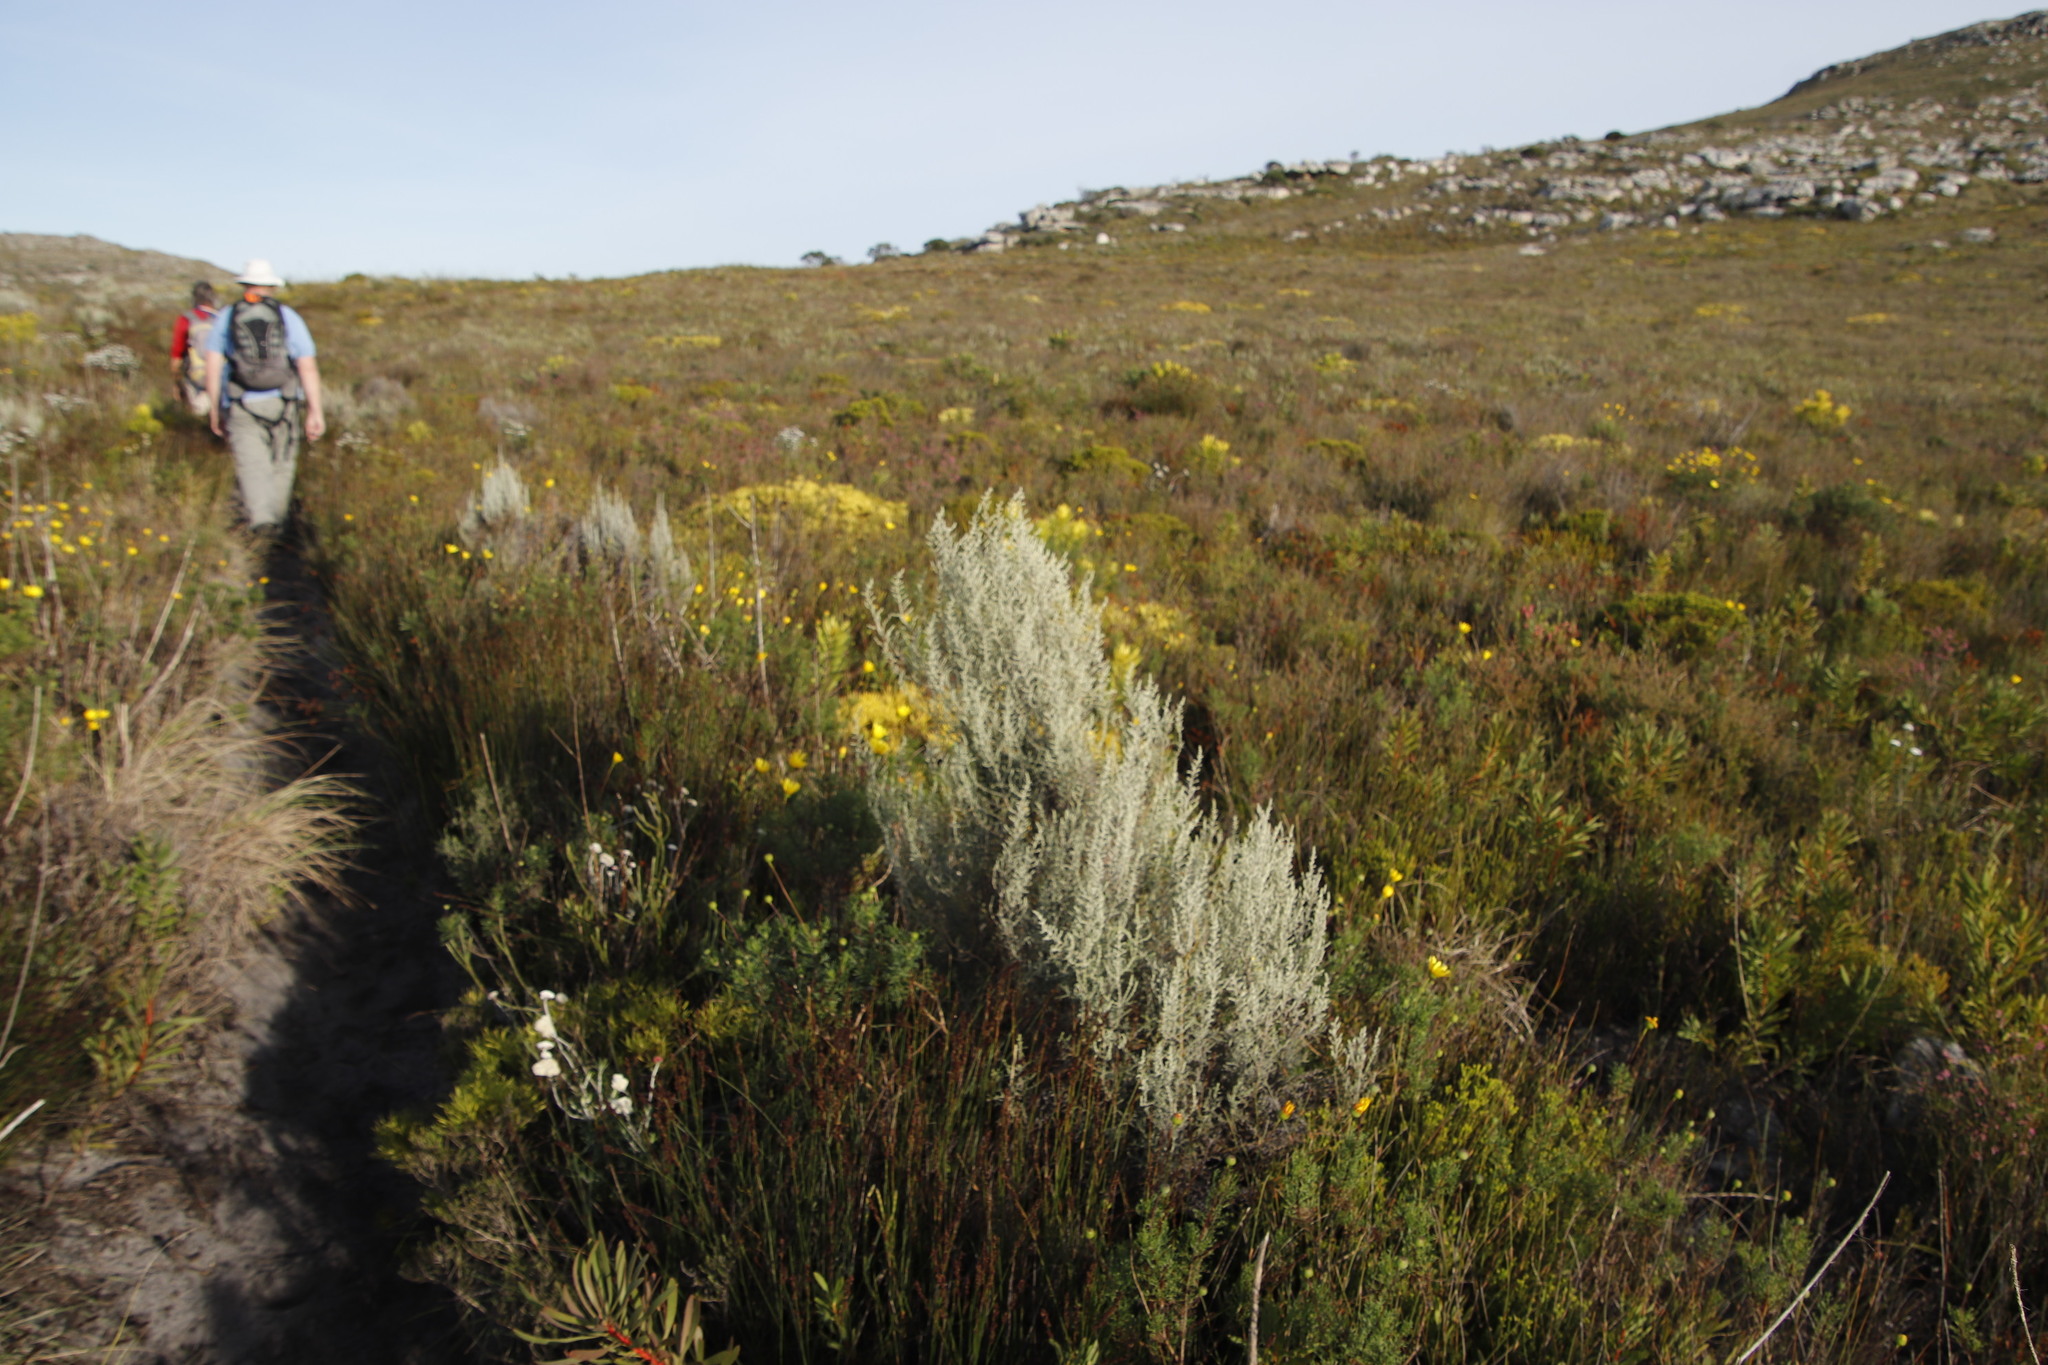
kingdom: Plantae
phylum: Tracheophyta
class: Magnoliopsida
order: Asterales
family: Asteraceae
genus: Seriphium
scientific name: Seriphium plumosum
